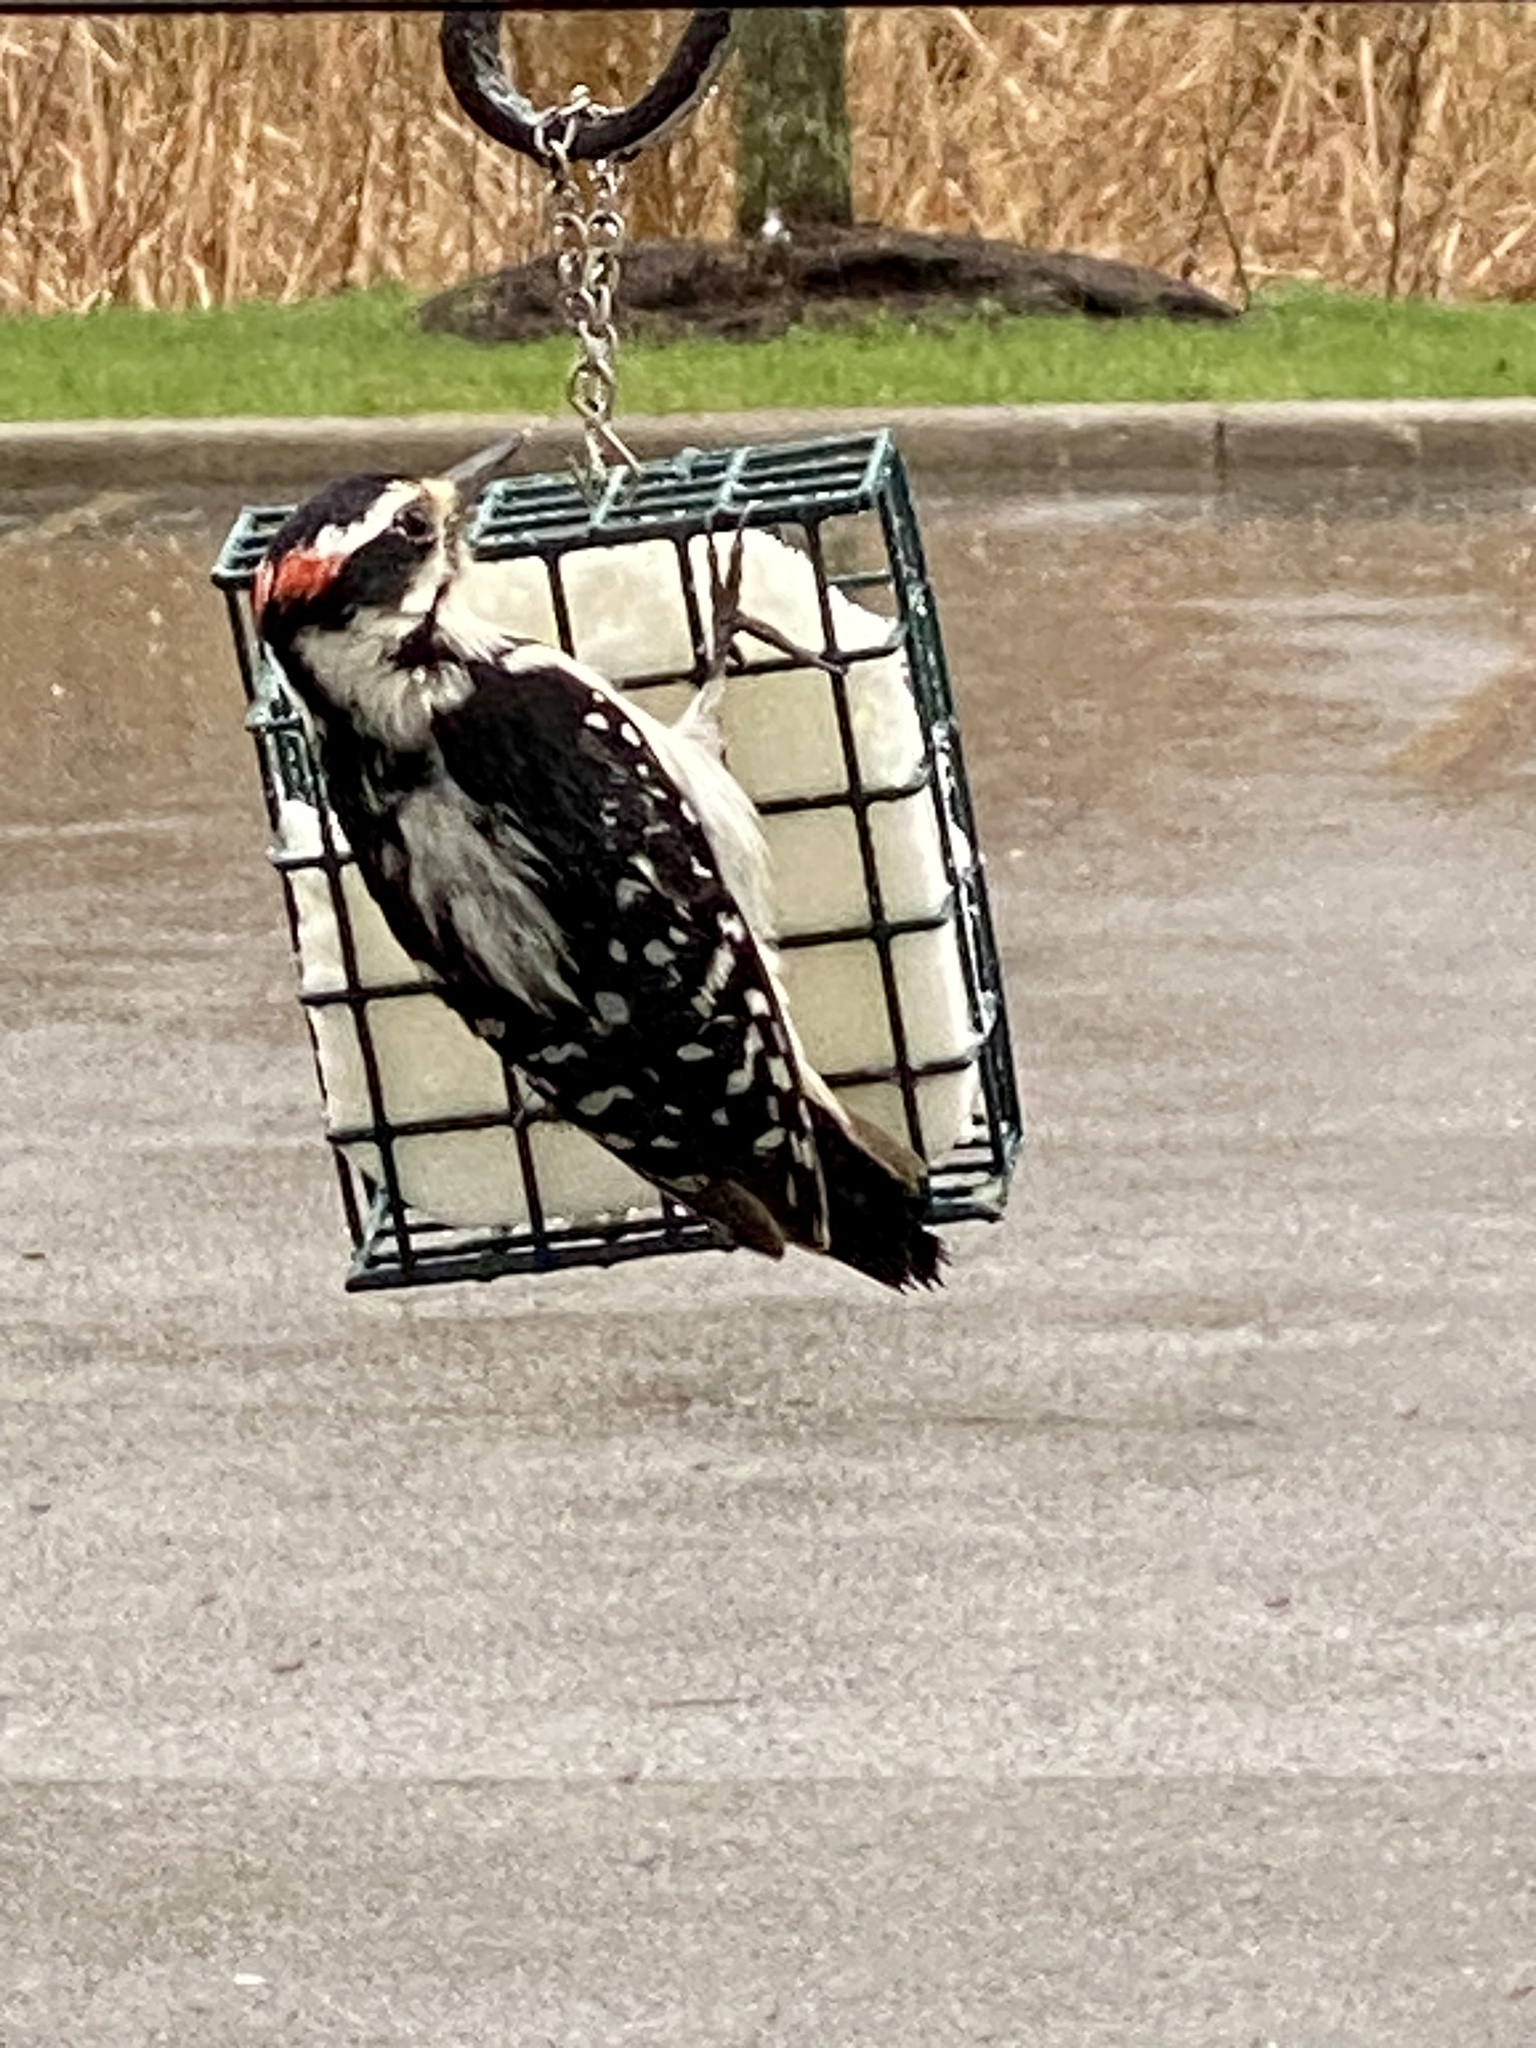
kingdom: Animalia
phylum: Chordata
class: Aves
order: Piciformes
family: Picidae
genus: Leuconotopicus
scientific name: Leuconotopicus villosus
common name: Hairy woodpecker
